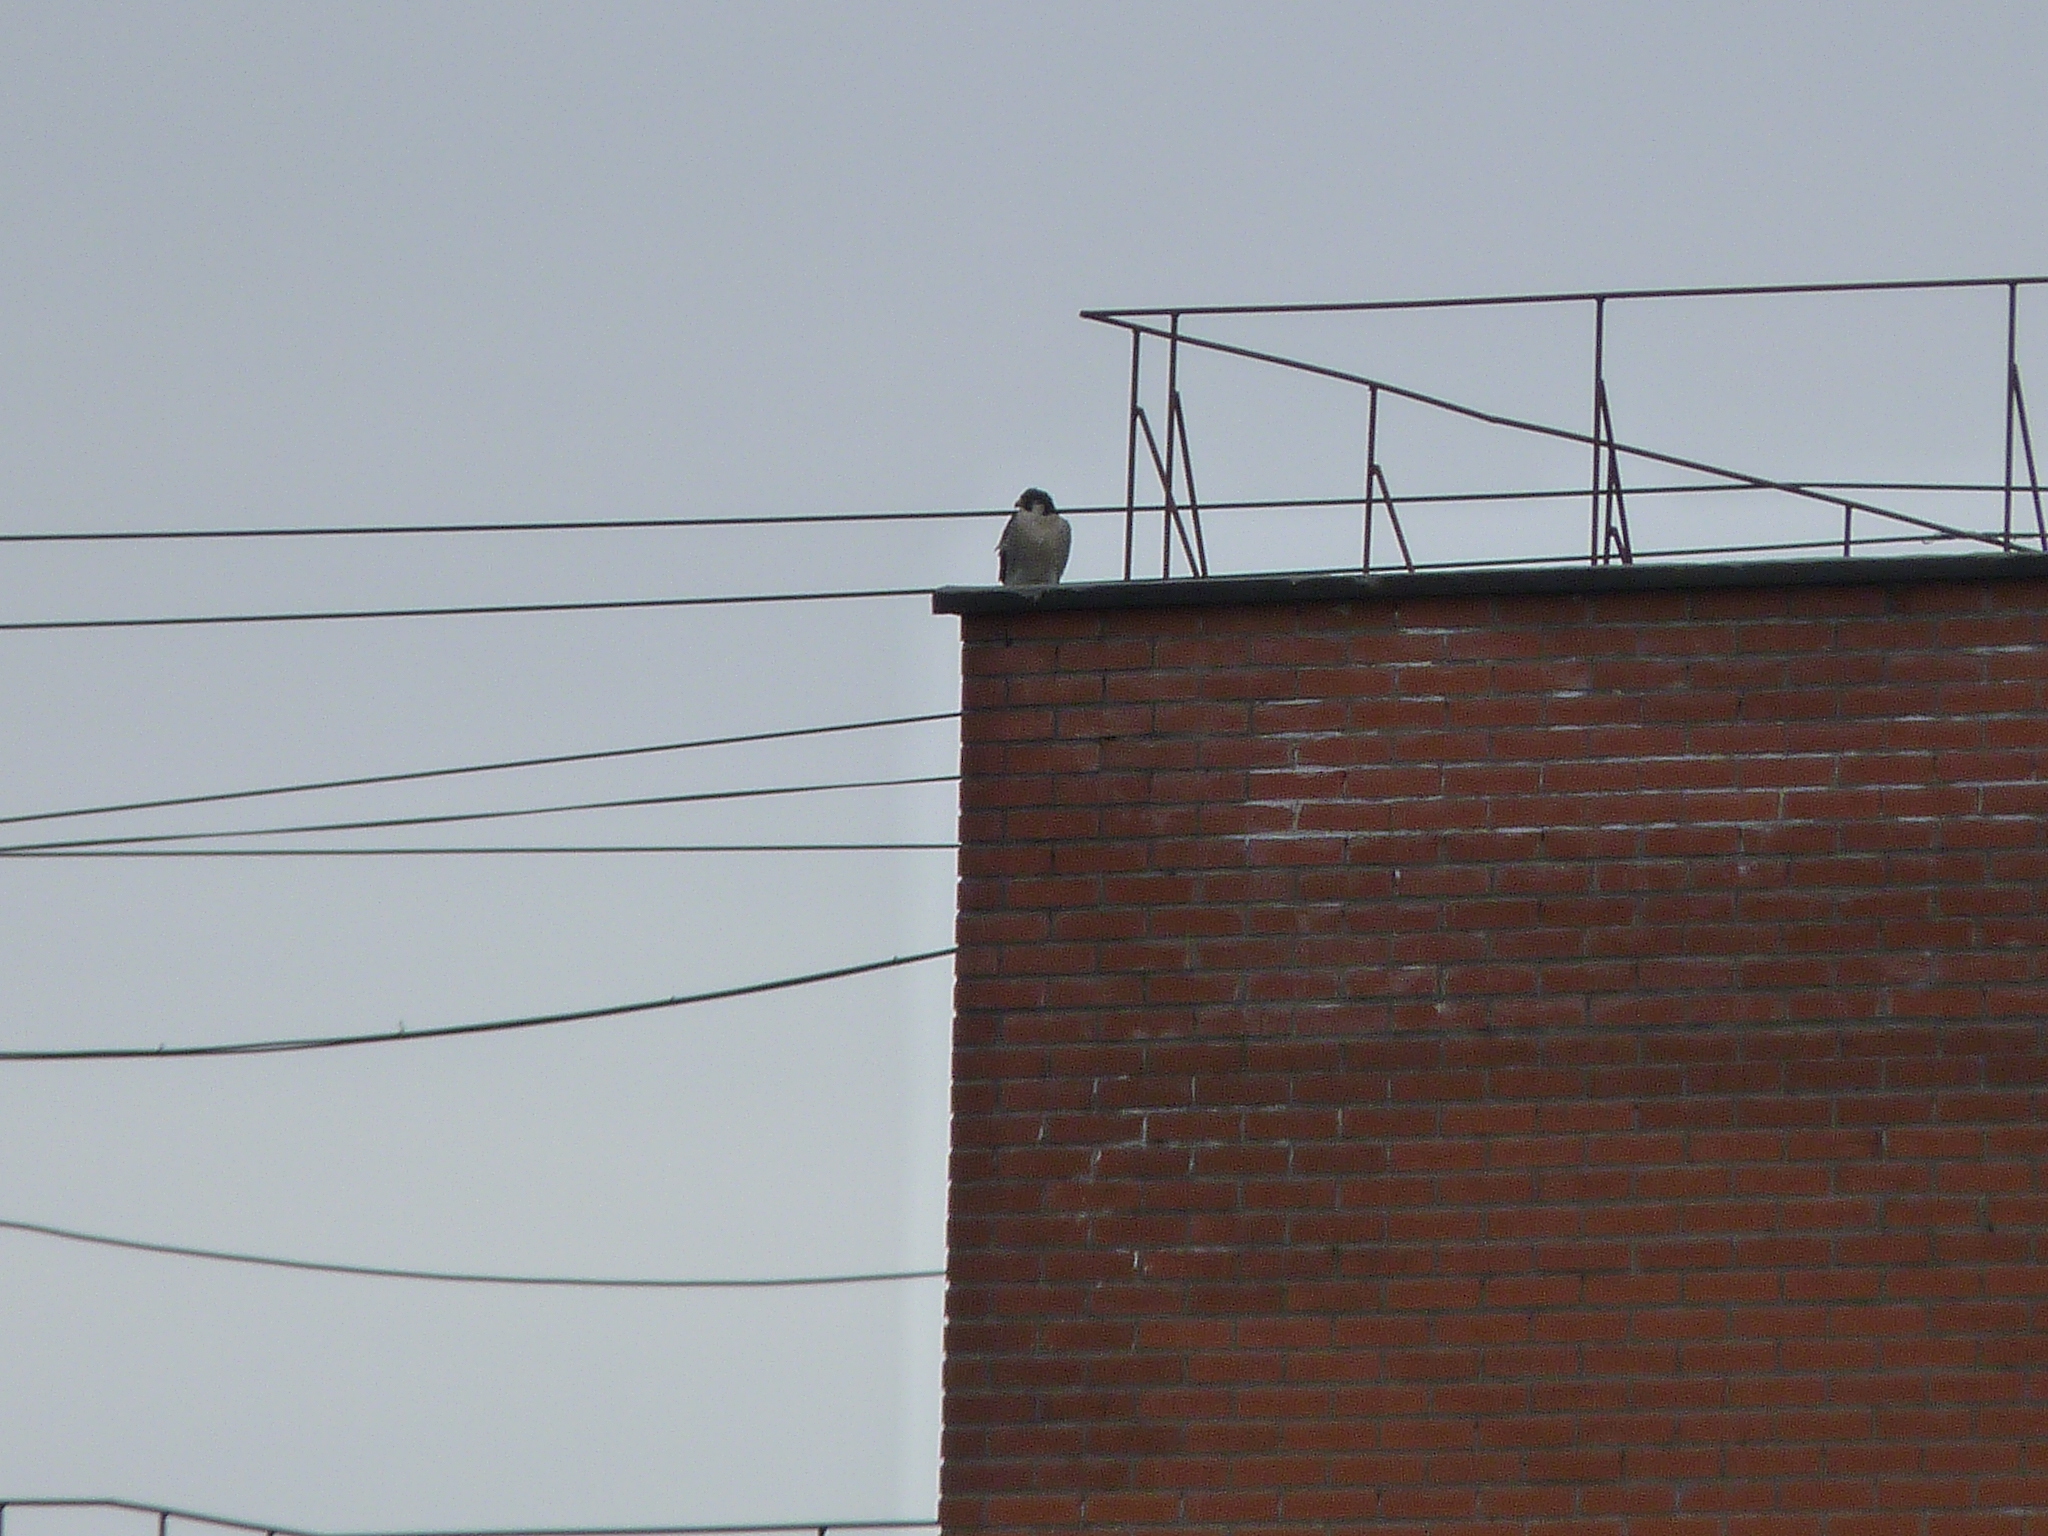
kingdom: Animalia
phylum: Chordata
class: Aves
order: Falconiformes
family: Falconidae
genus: Falco
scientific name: Falco peregrinus
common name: Peregrine falcon
